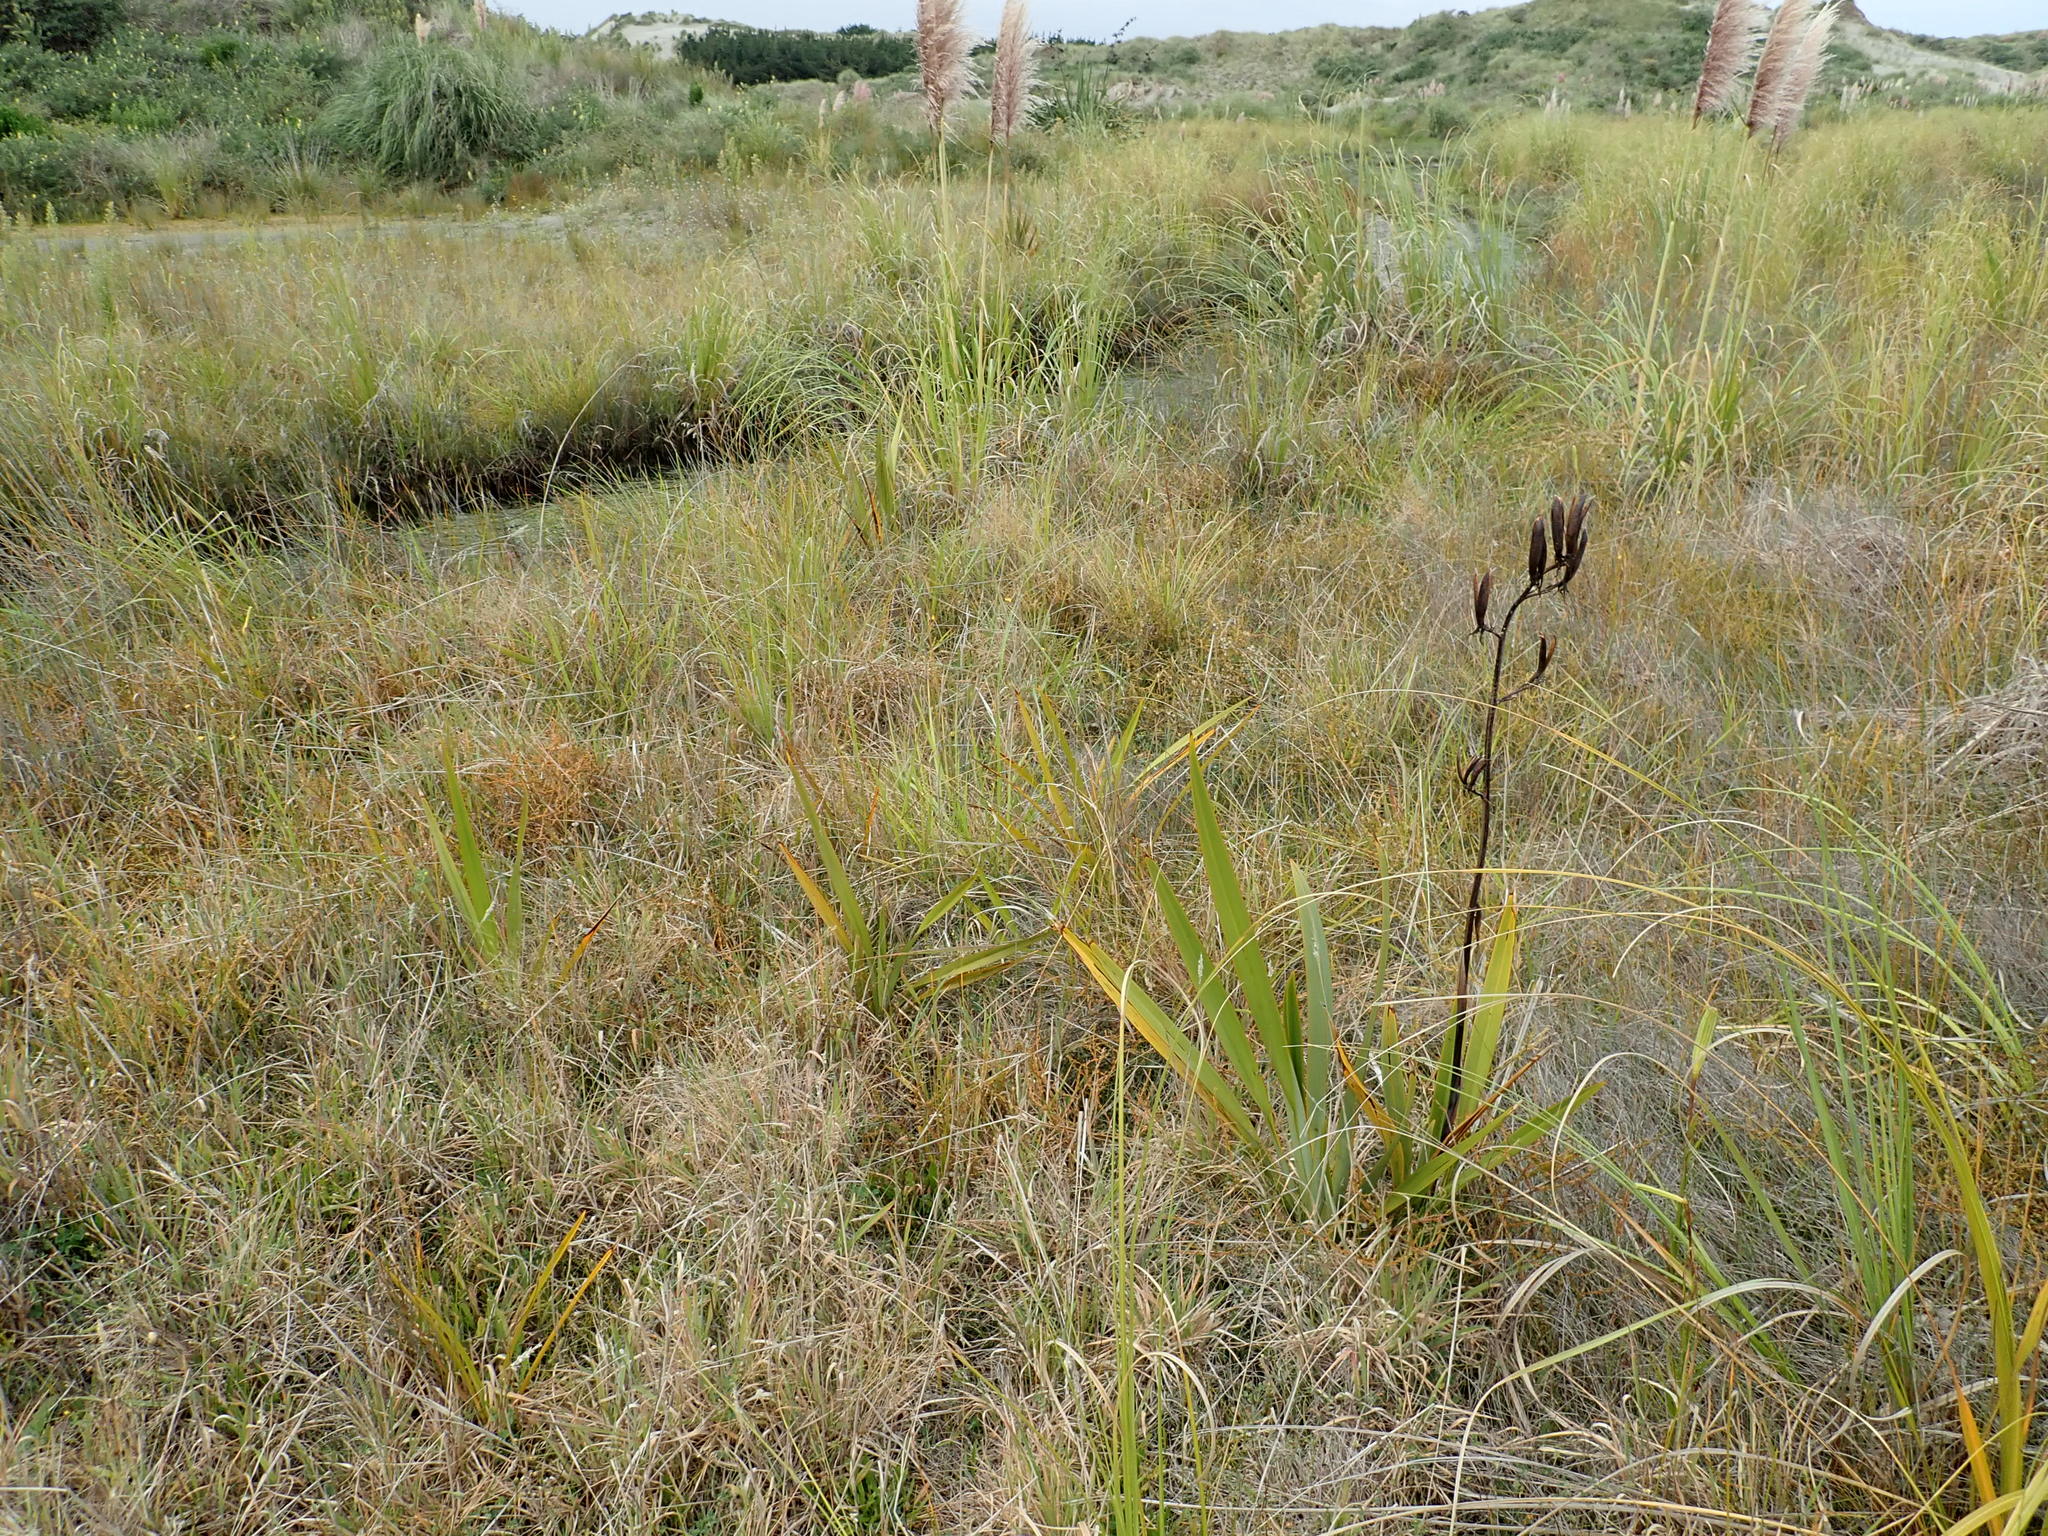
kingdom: Plantae
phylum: Tracheophyta
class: Liliopsida
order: Asparagales
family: Asphodelaceae
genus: Phormium
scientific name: Phormium tenax
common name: New zealand flax
